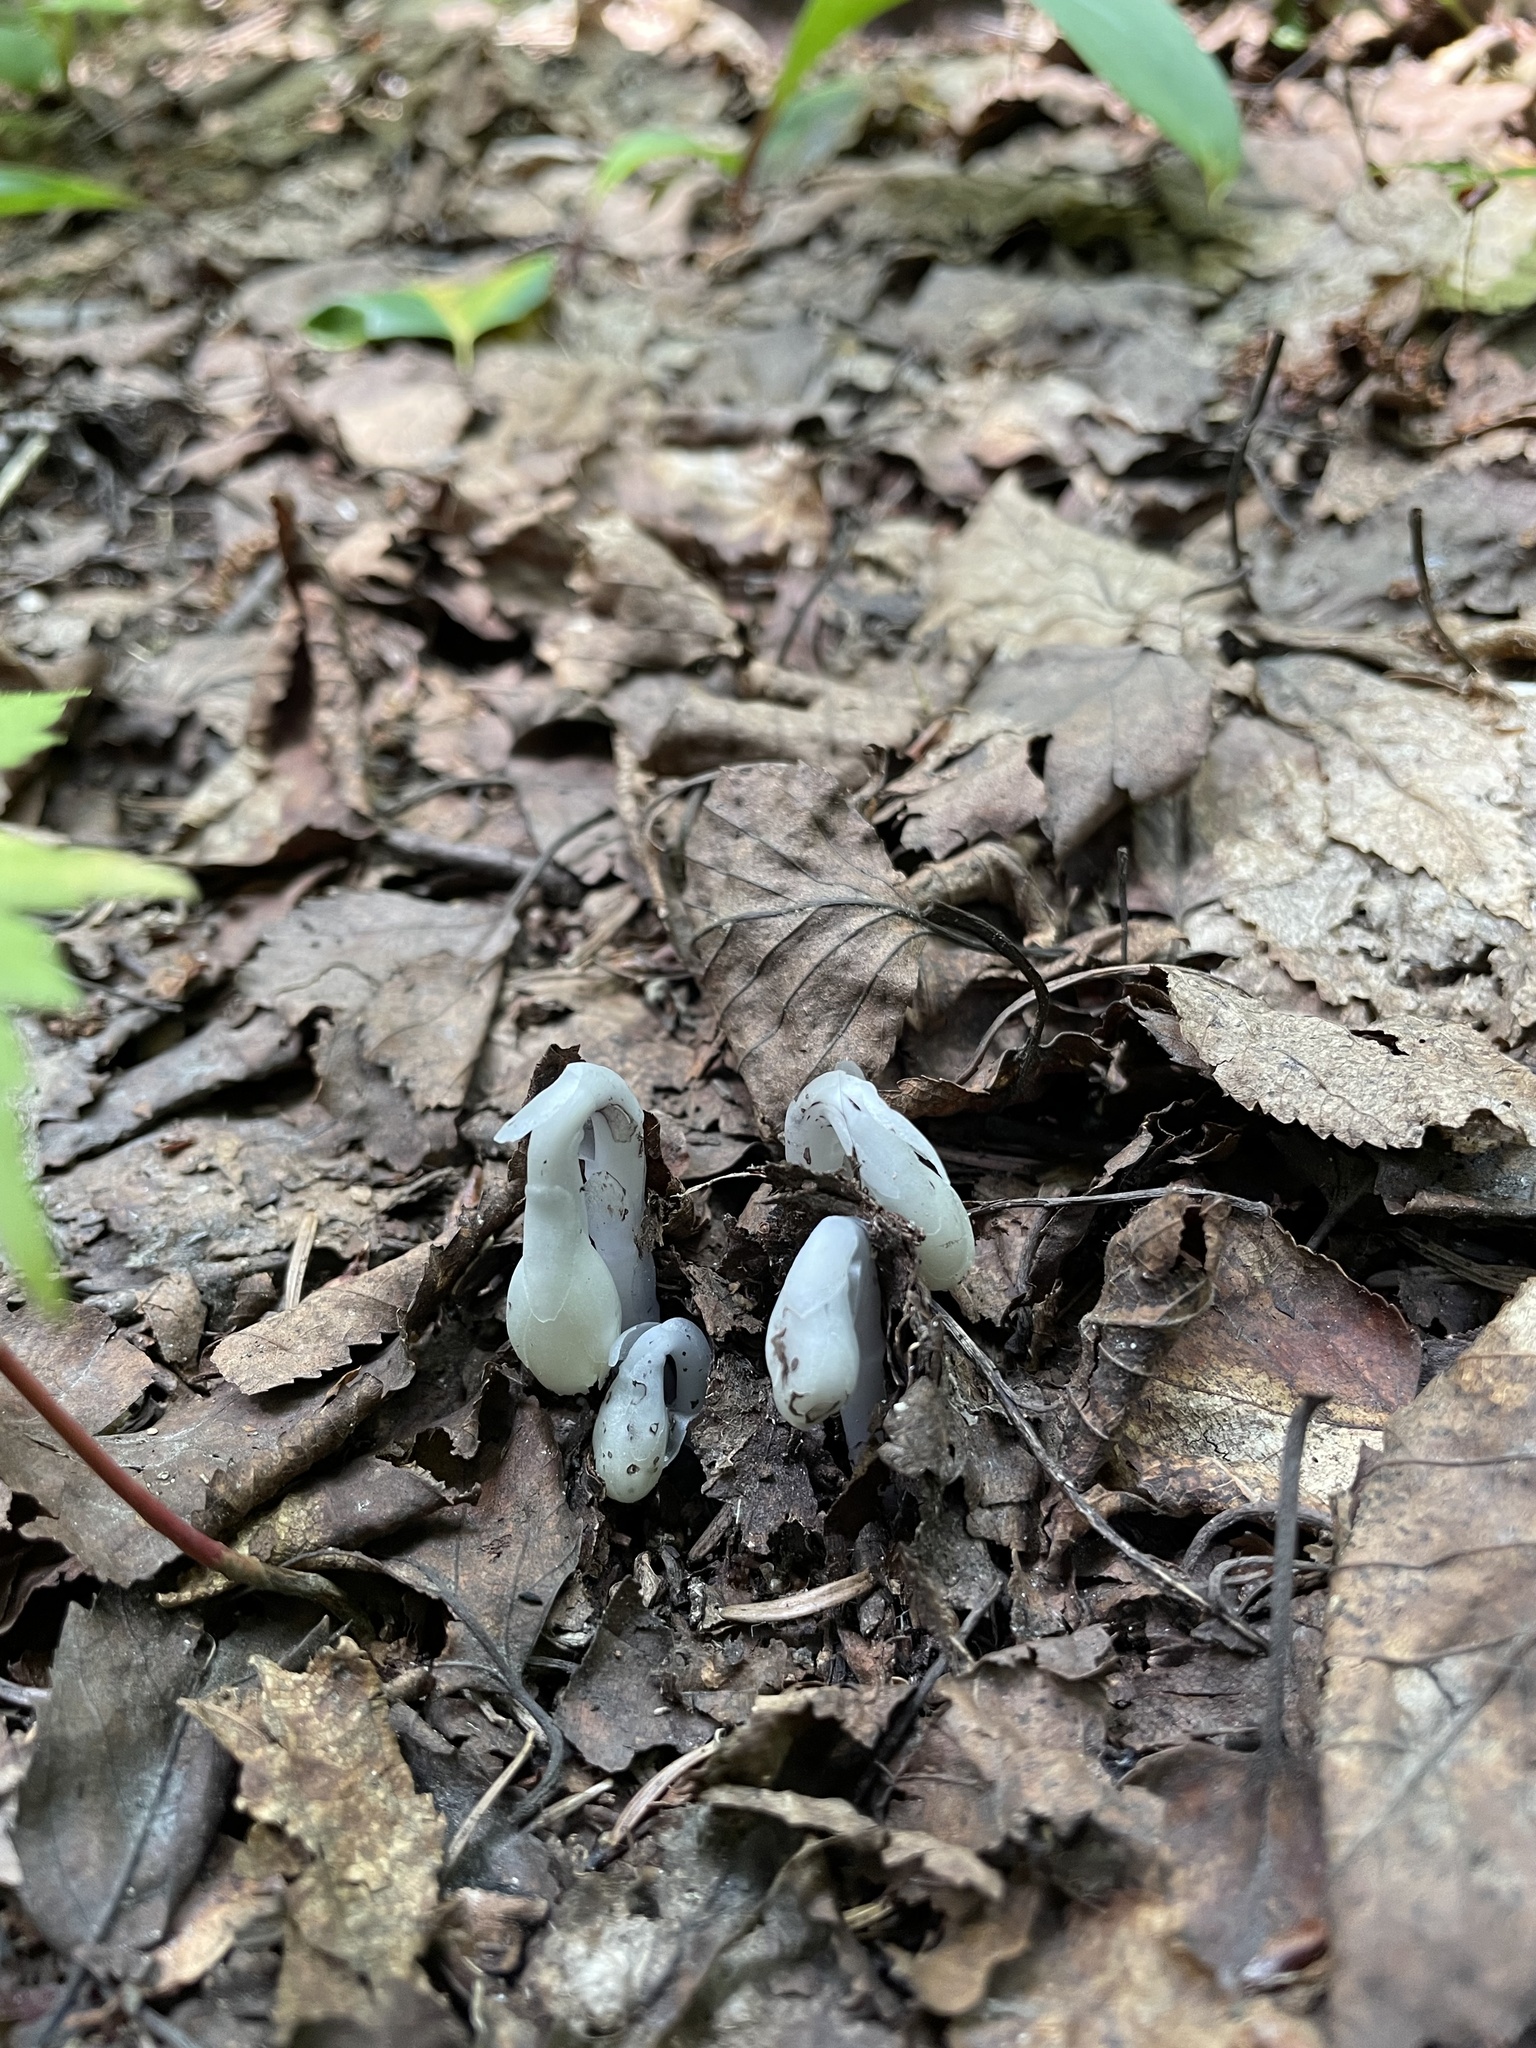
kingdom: Plantae
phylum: Tracheophyta
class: Magnoliopsida
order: Ericales
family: Ericaceae
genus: Monotropa
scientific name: Monotropa uniflora
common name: Convulsion root
